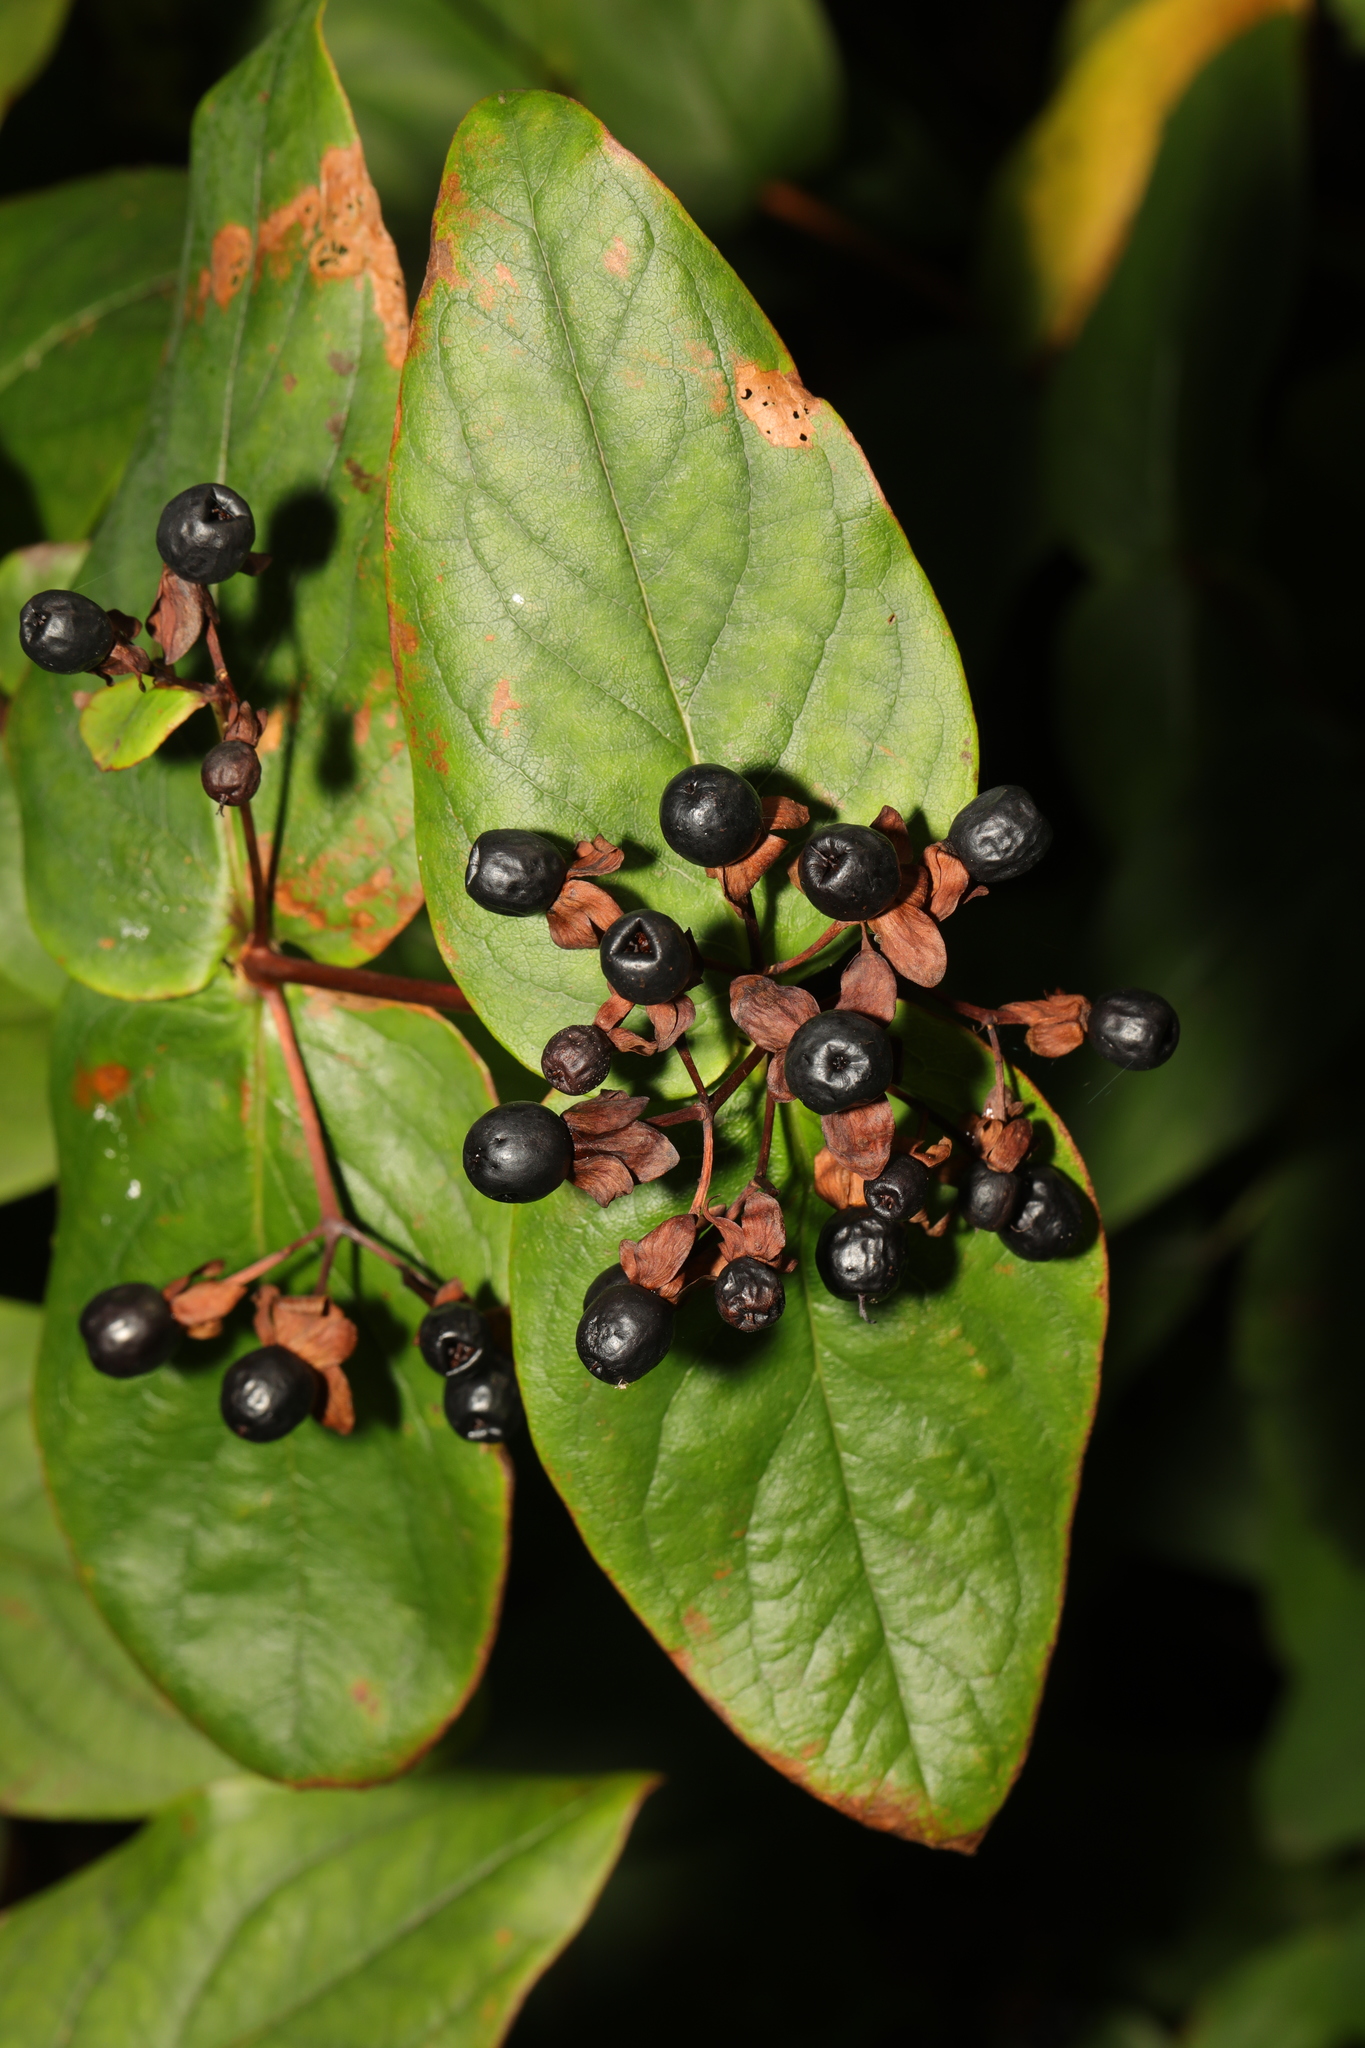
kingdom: Plantae
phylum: Tracheophyta
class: Magnoliopsida
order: Malpighiales
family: Hypericaceae
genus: Hypericum
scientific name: Hypericum androsaemum
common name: Sweet-amber
